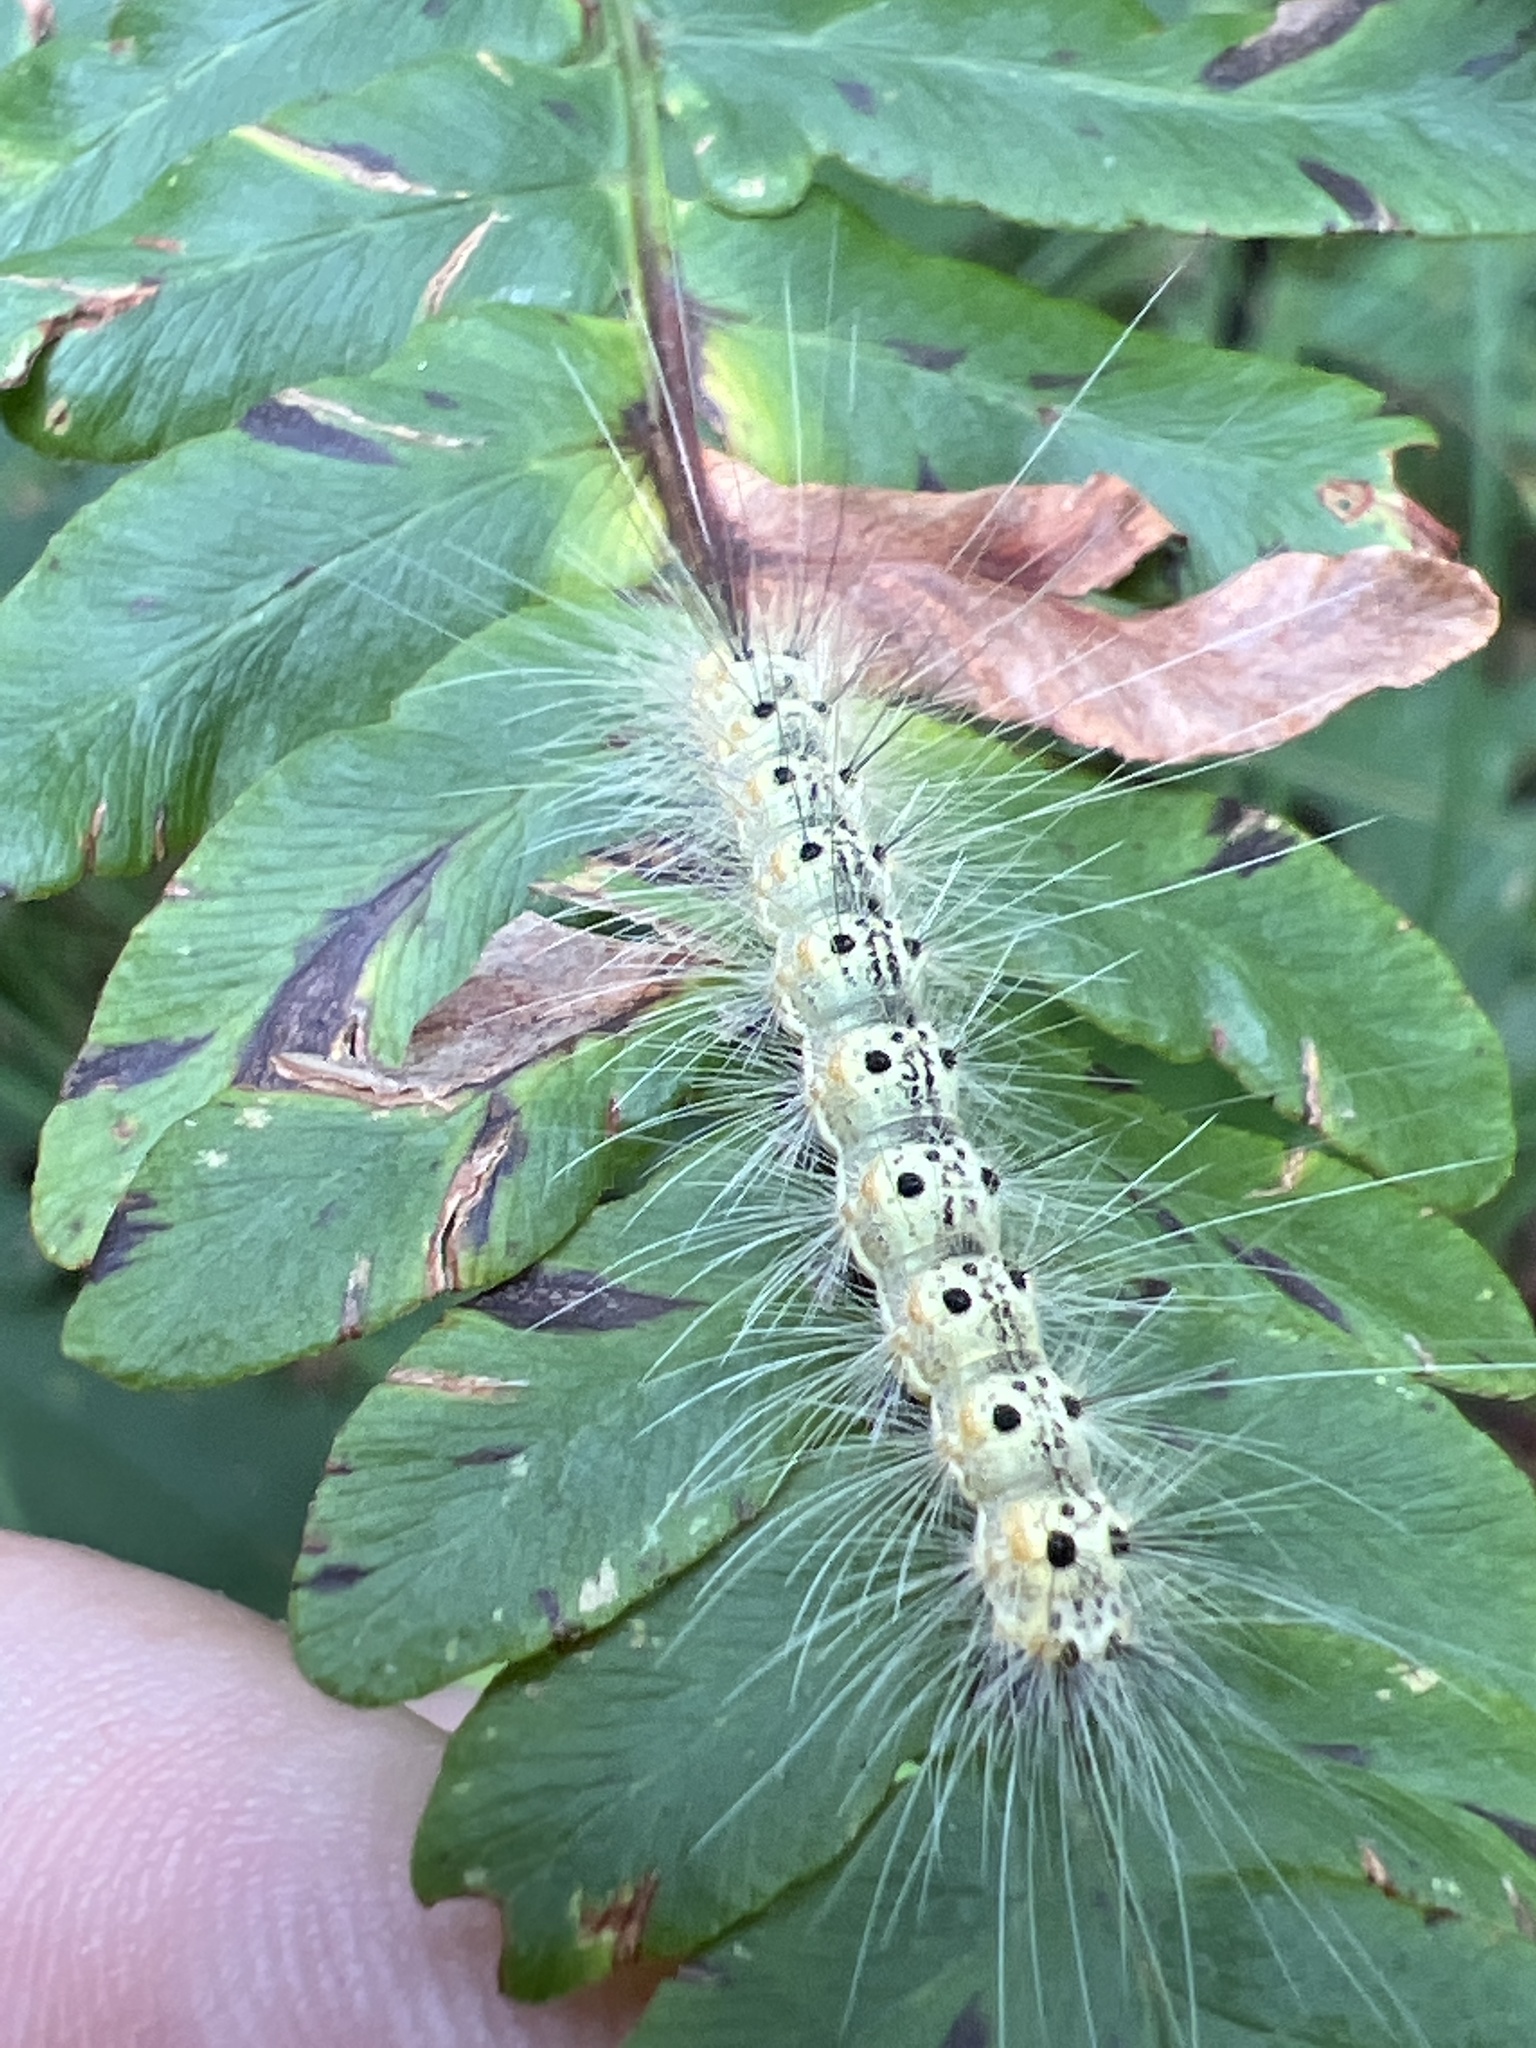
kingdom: Animalia
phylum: Arthropoda
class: Insecta
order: Lepidoptera
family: Erebidae
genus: Hyphantria
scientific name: Hyphantria cunea
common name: American white moth
